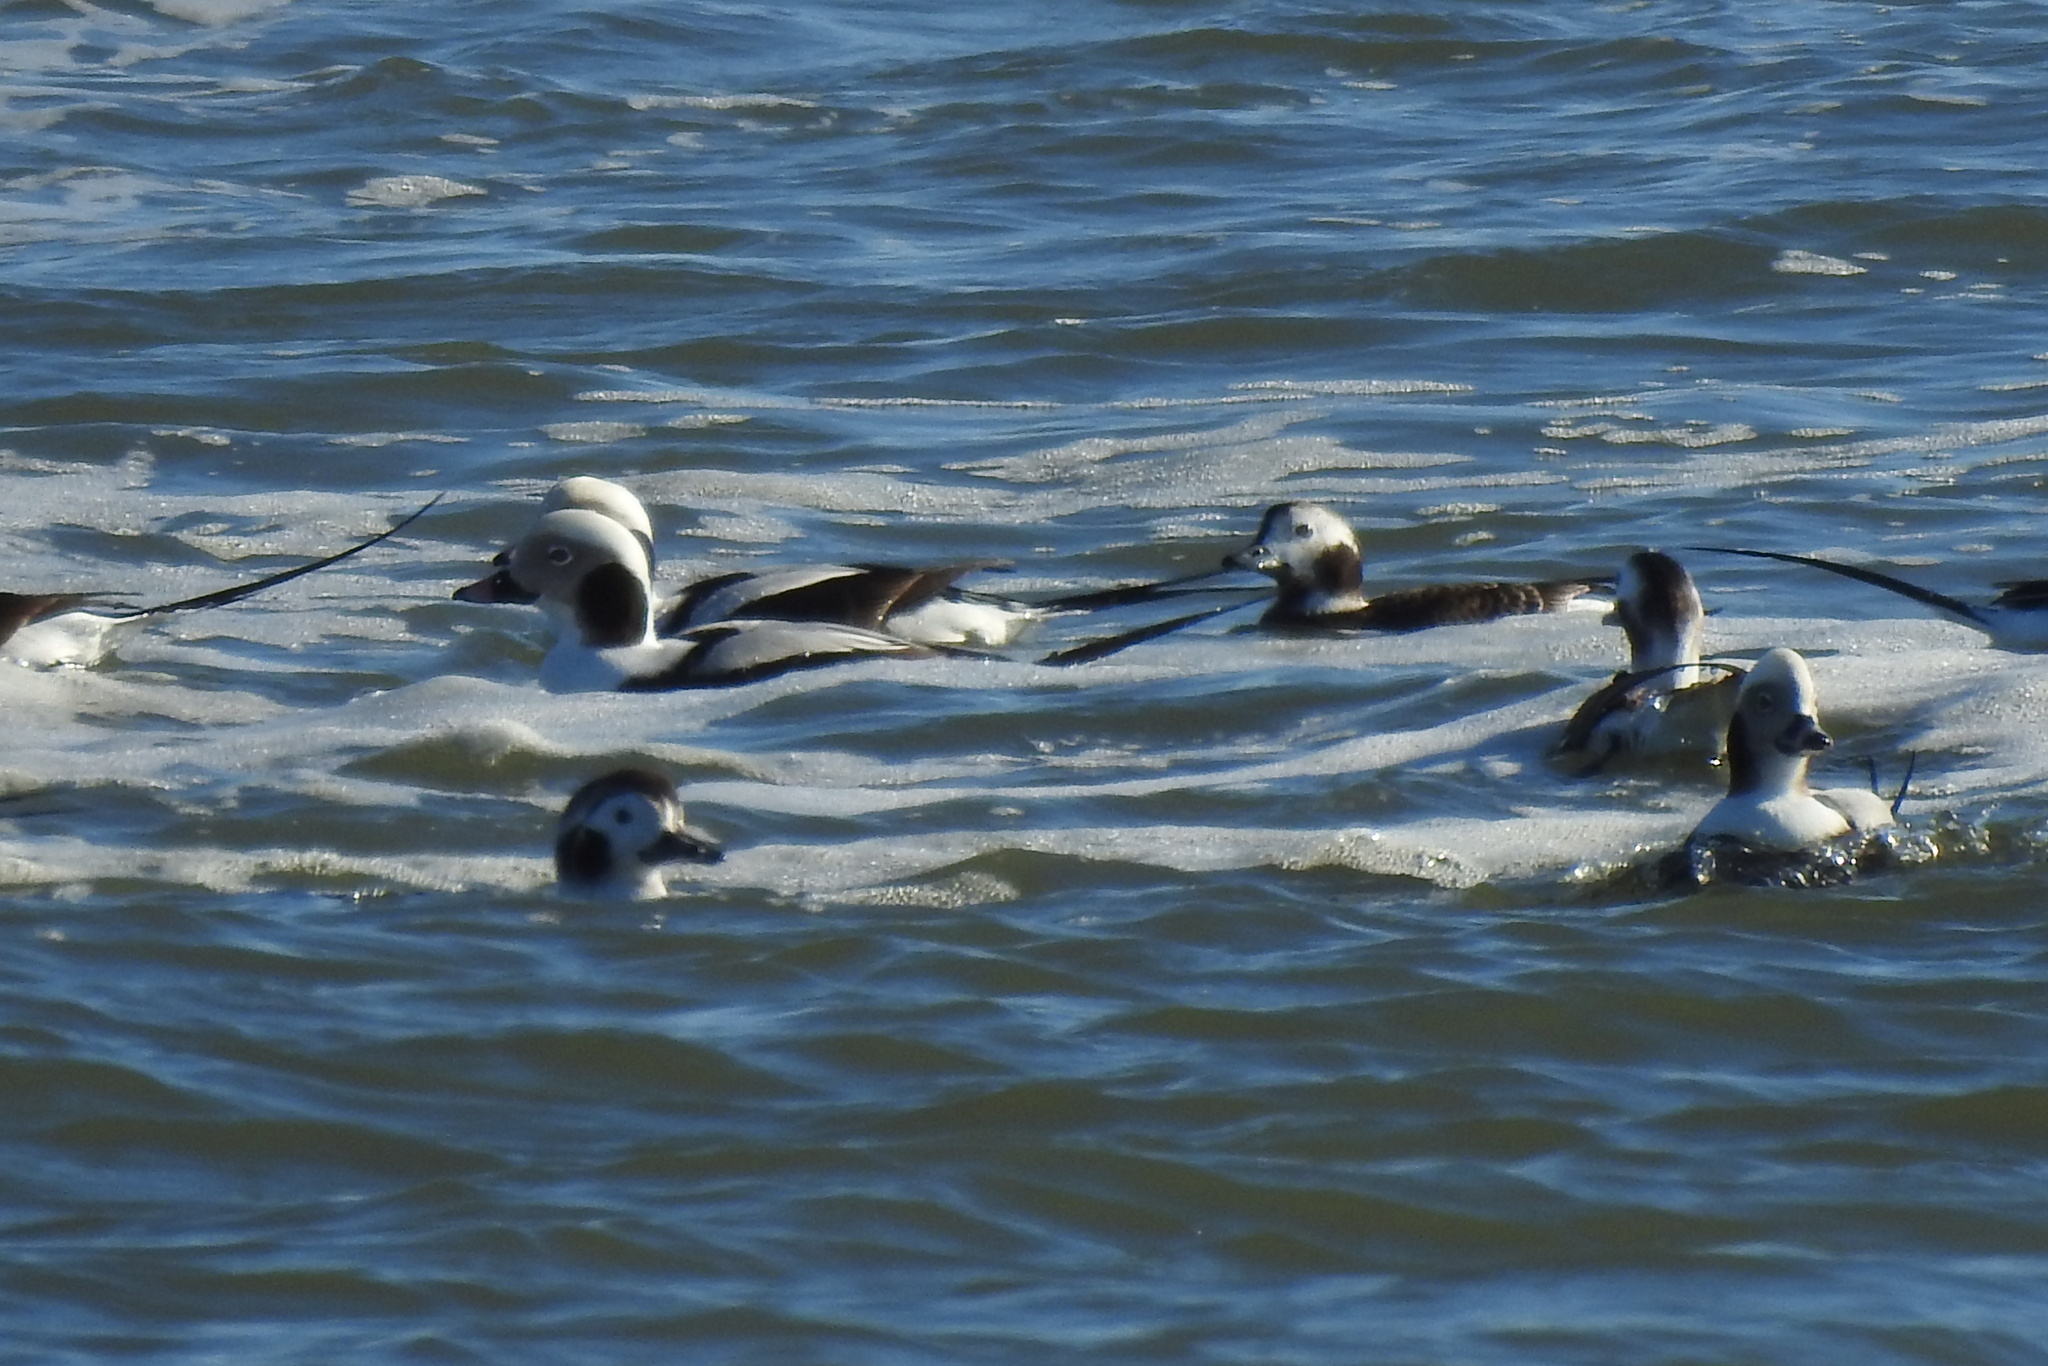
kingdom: Animalia
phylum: Chordata
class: Aves
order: Anseriformes
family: Anatidae
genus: Clangula
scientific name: Clangula hyemalis
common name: Long-tailed duck
